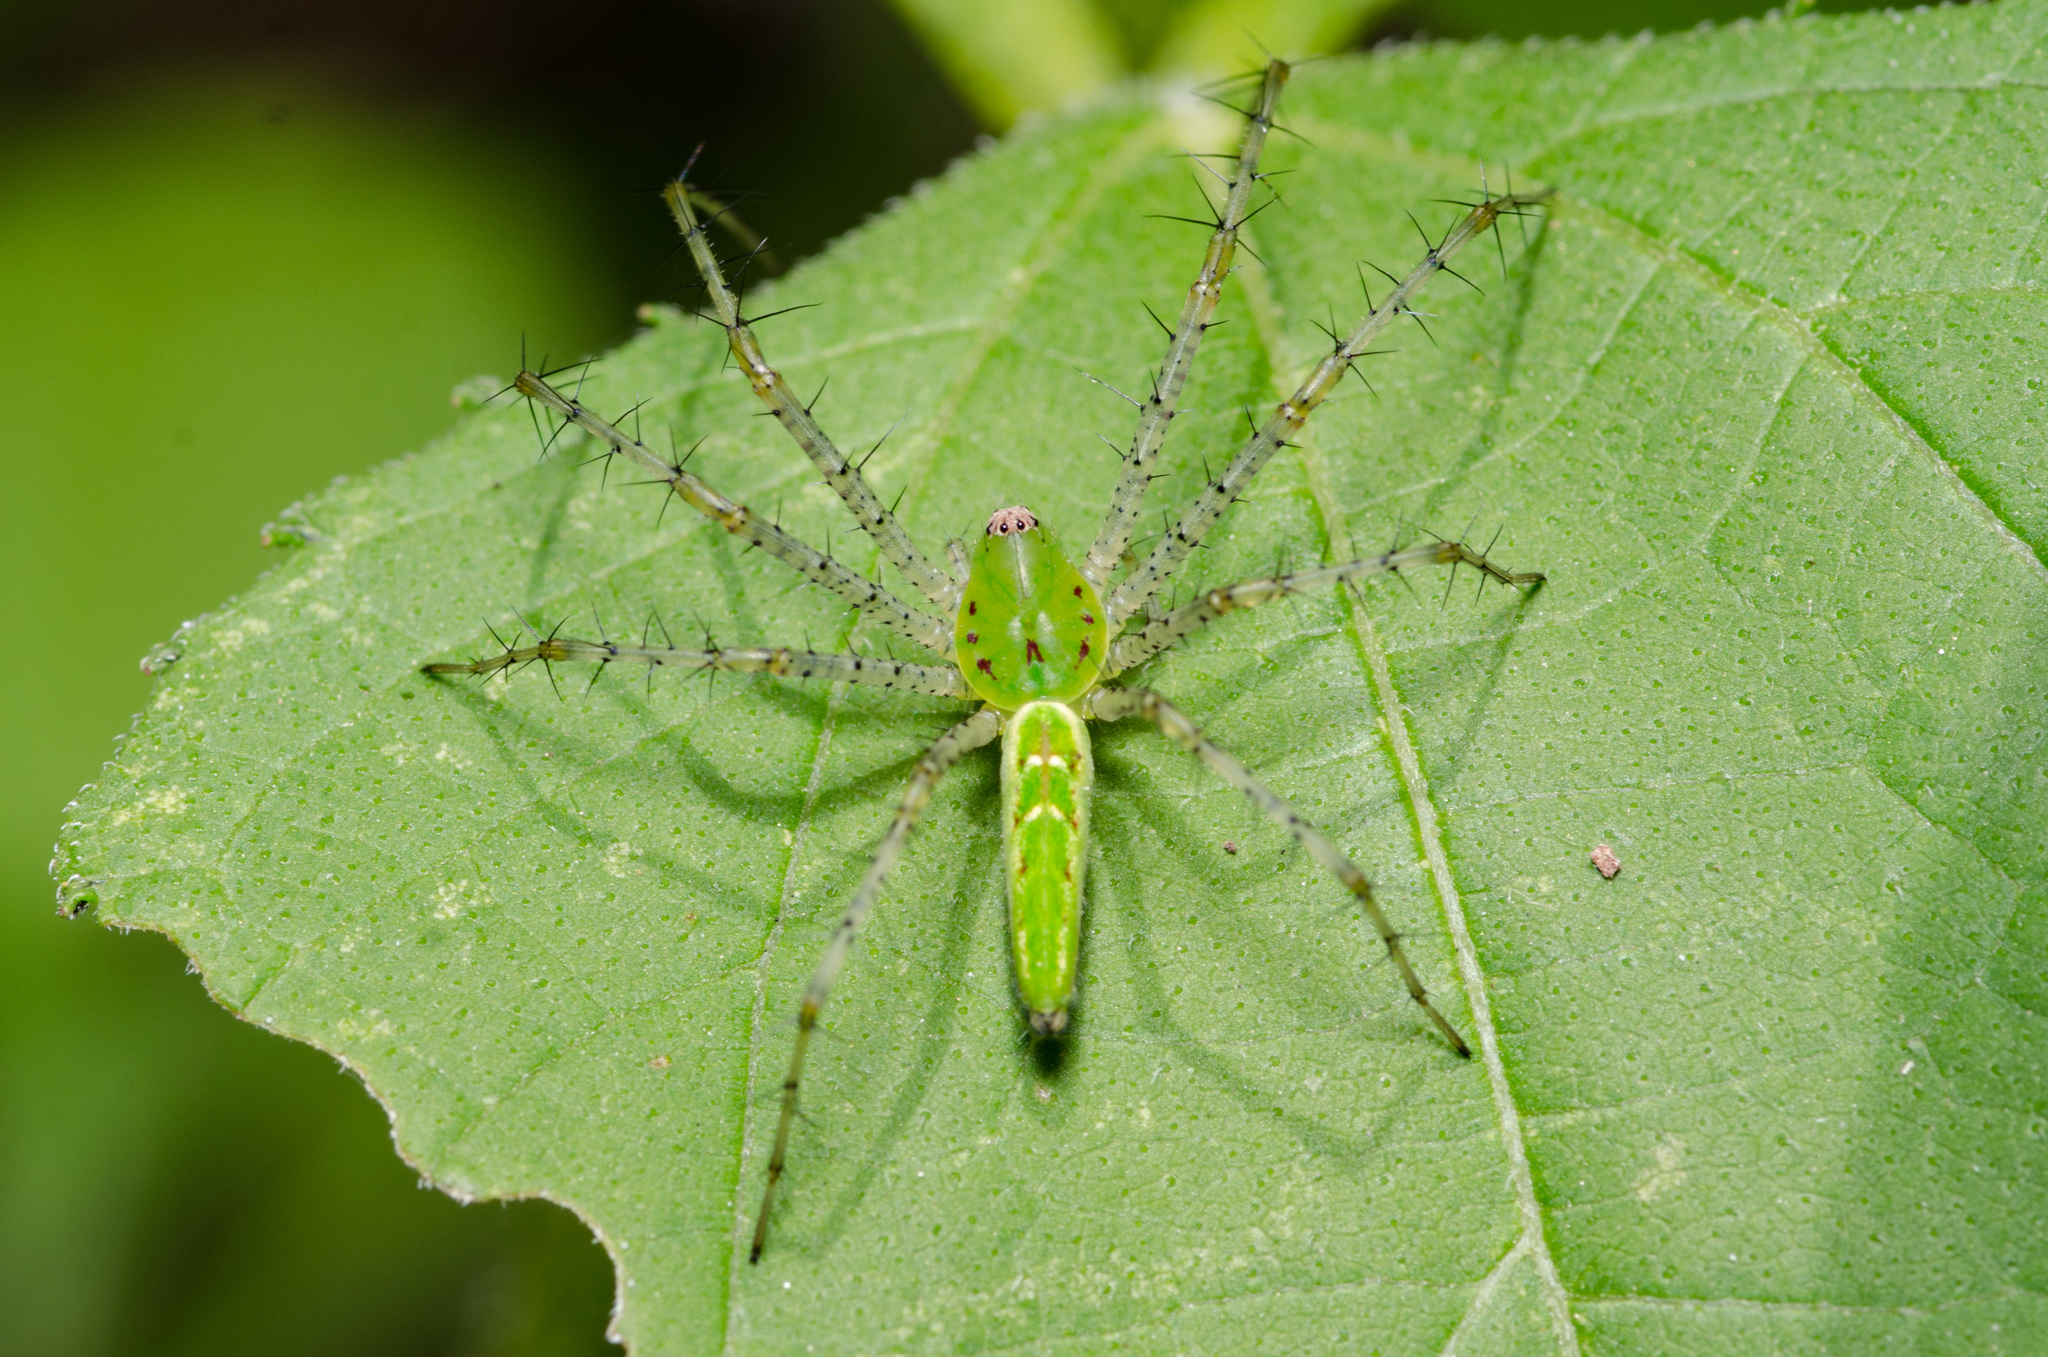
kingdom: Animalia
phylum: Arthropoda
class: Arachnida
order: Araneae
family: Oxyopidae
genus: Peucetia
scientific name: Peucetia viridans
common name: Lynx spiders
